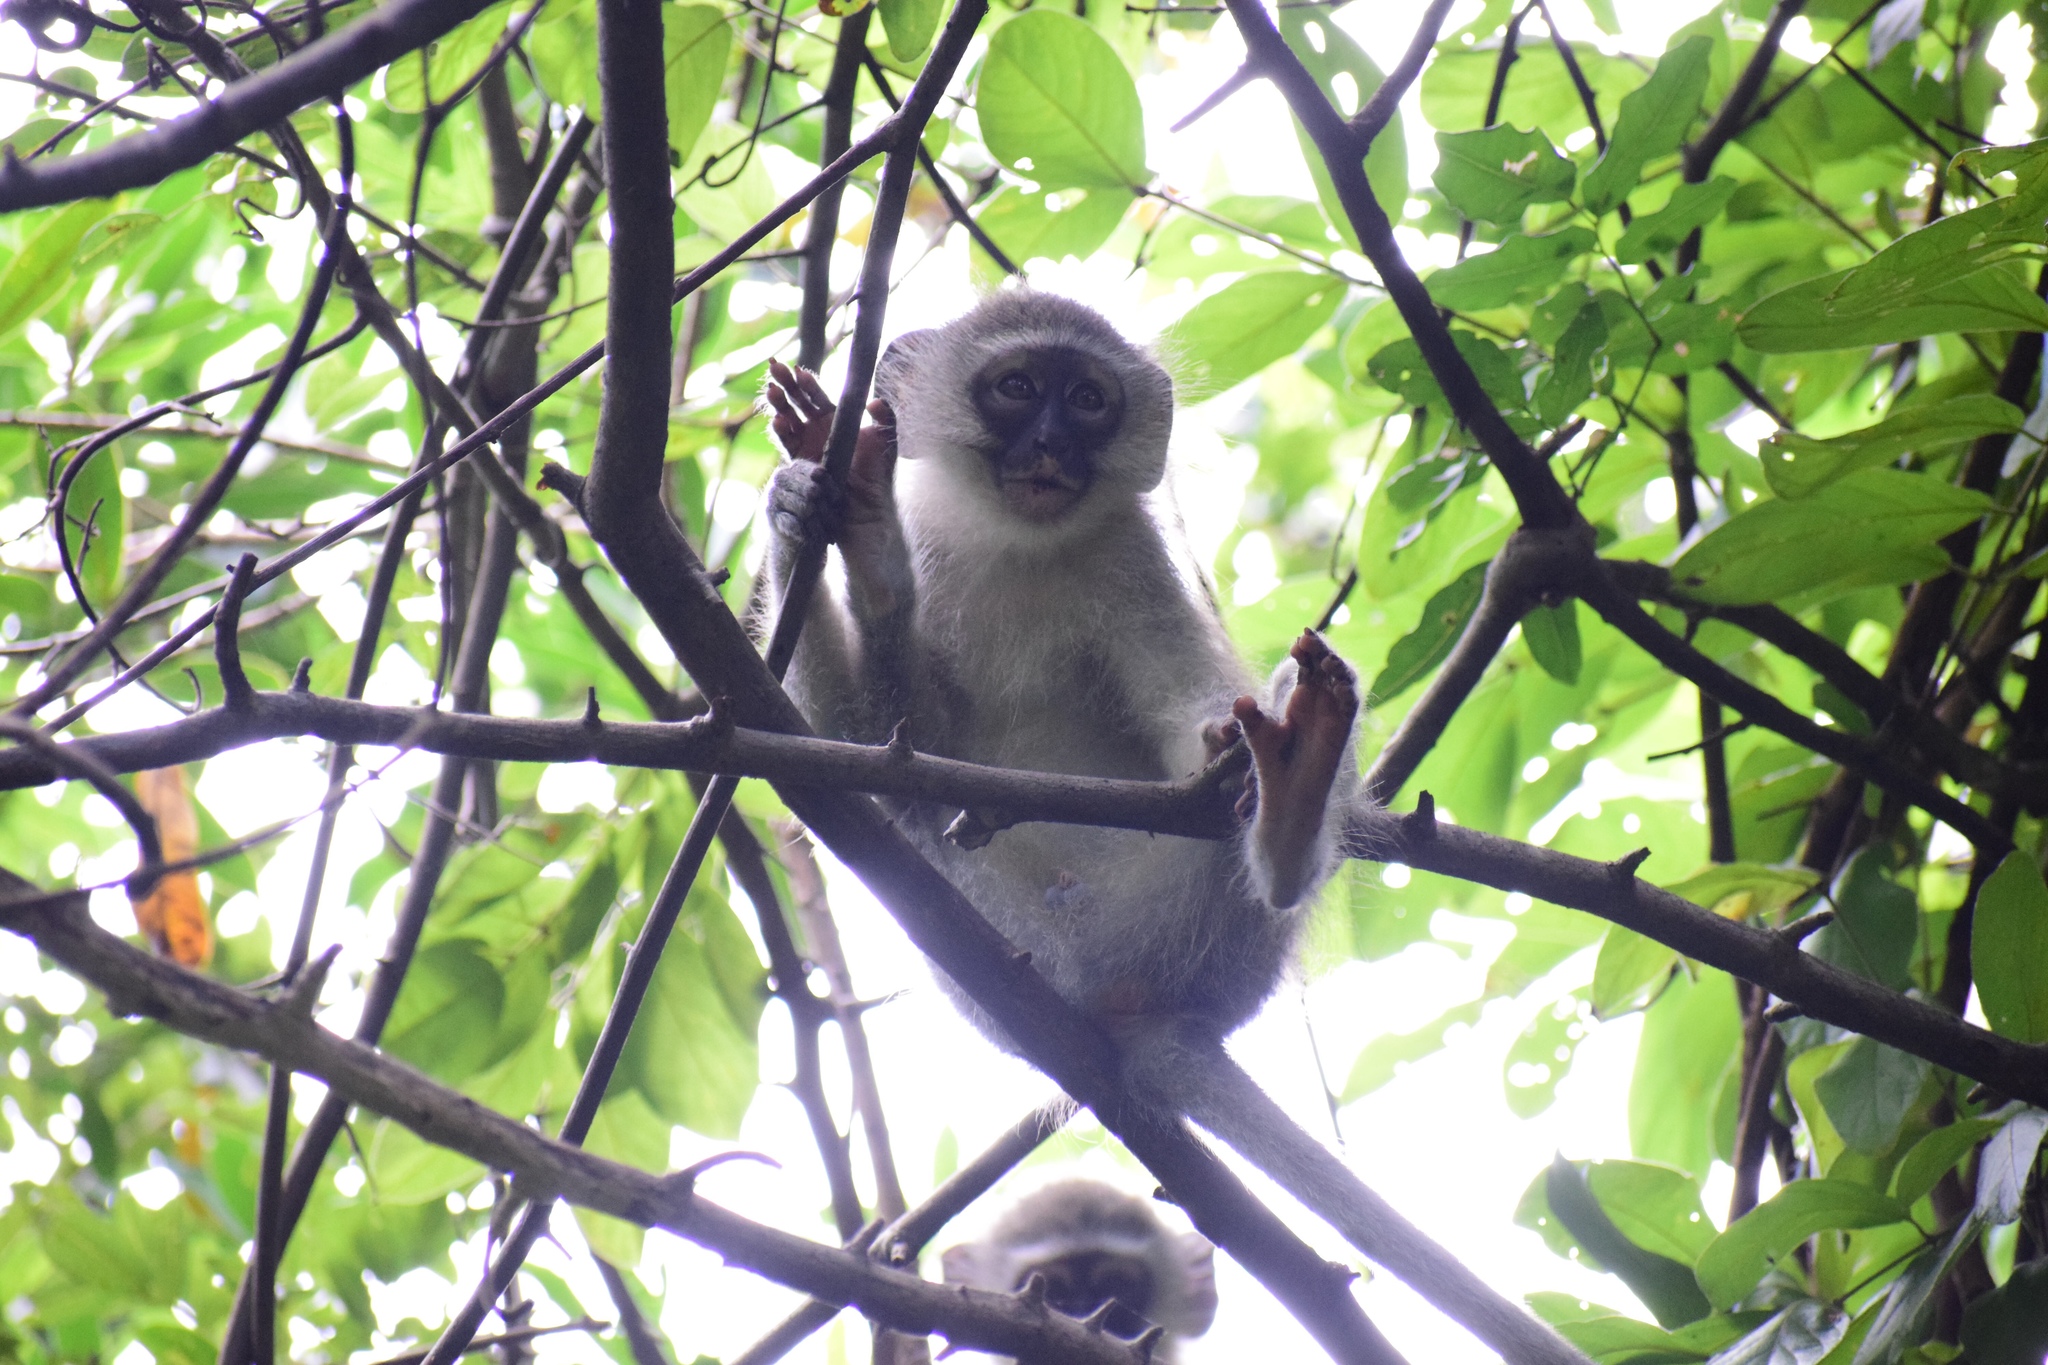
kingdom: Animalia
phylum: Chordata
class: Mammalia
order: Primates
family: Cercopithecidae
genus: Chlorocebus
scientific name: Chlorocebus pygerythrus
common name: Vervet monkey
